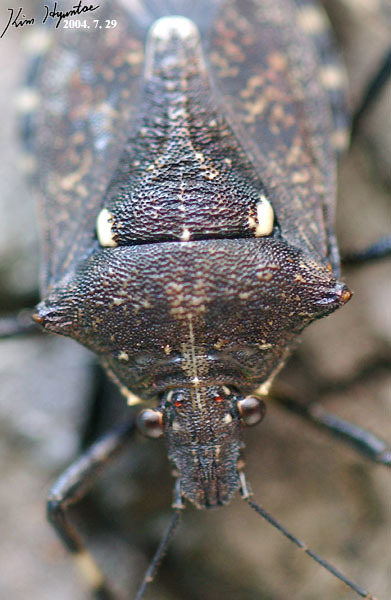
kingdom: Animalia
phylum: Arthropoda
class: Insecta
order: Hemiptera
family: Pentatomidae
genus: Dalpada
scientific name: Dalpada cinctipes
